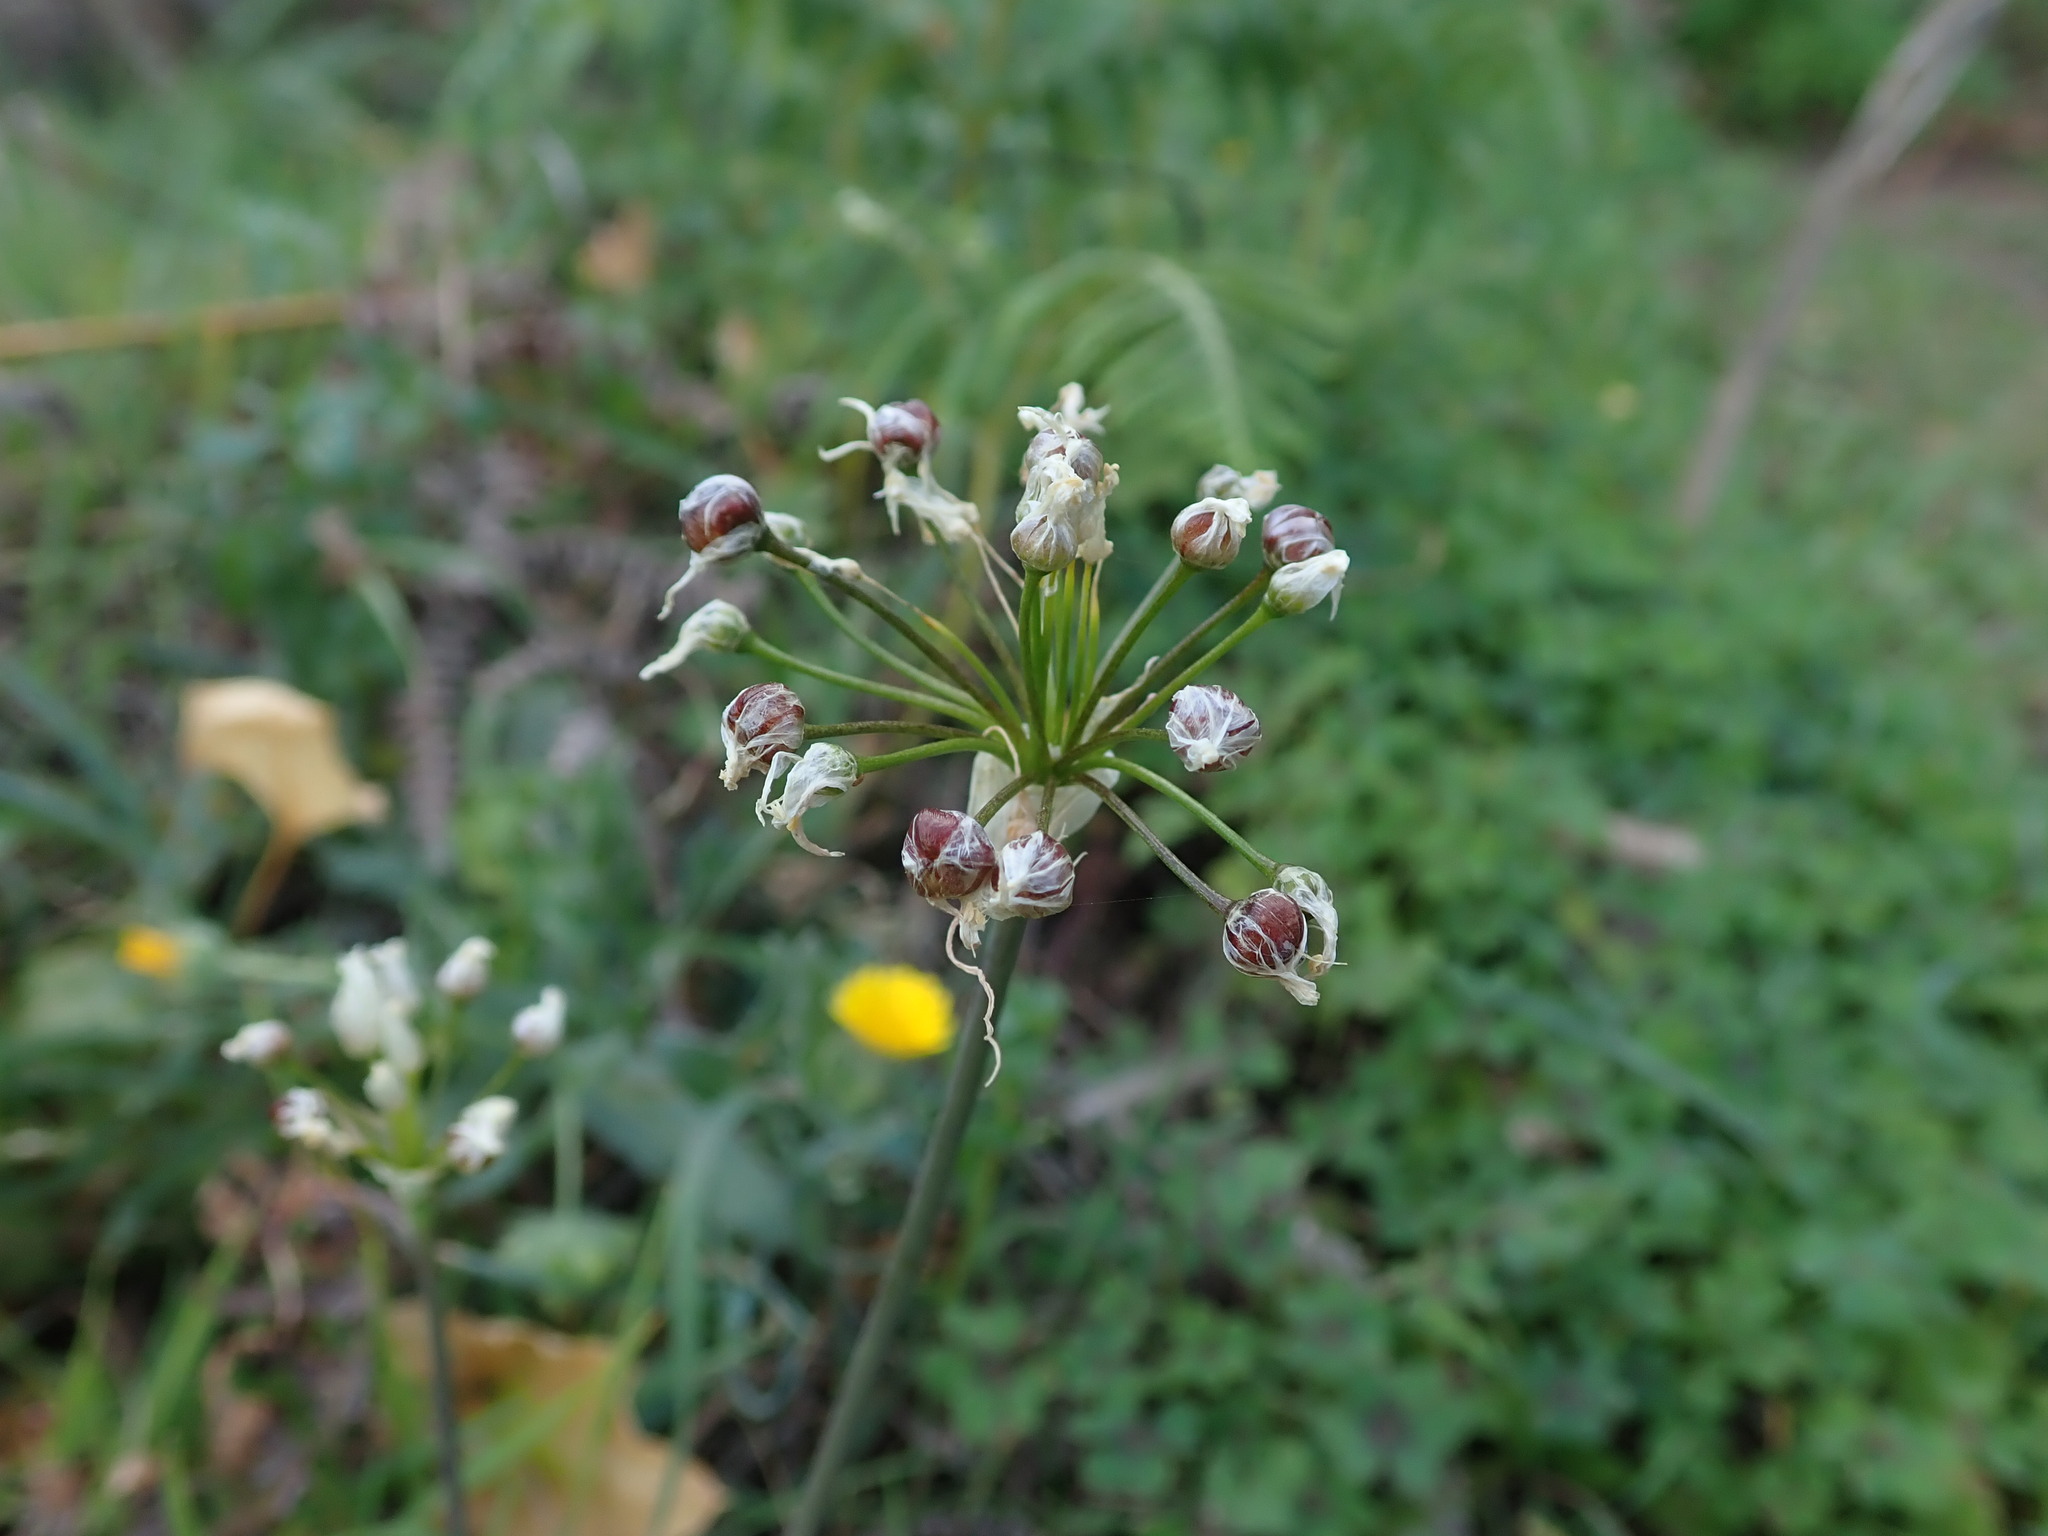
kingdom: Plantae
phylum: Tracheophyta
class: Liliopsida
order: Asparagales
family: Amaryllidaceae
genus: Allium
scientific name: Allium canariense
